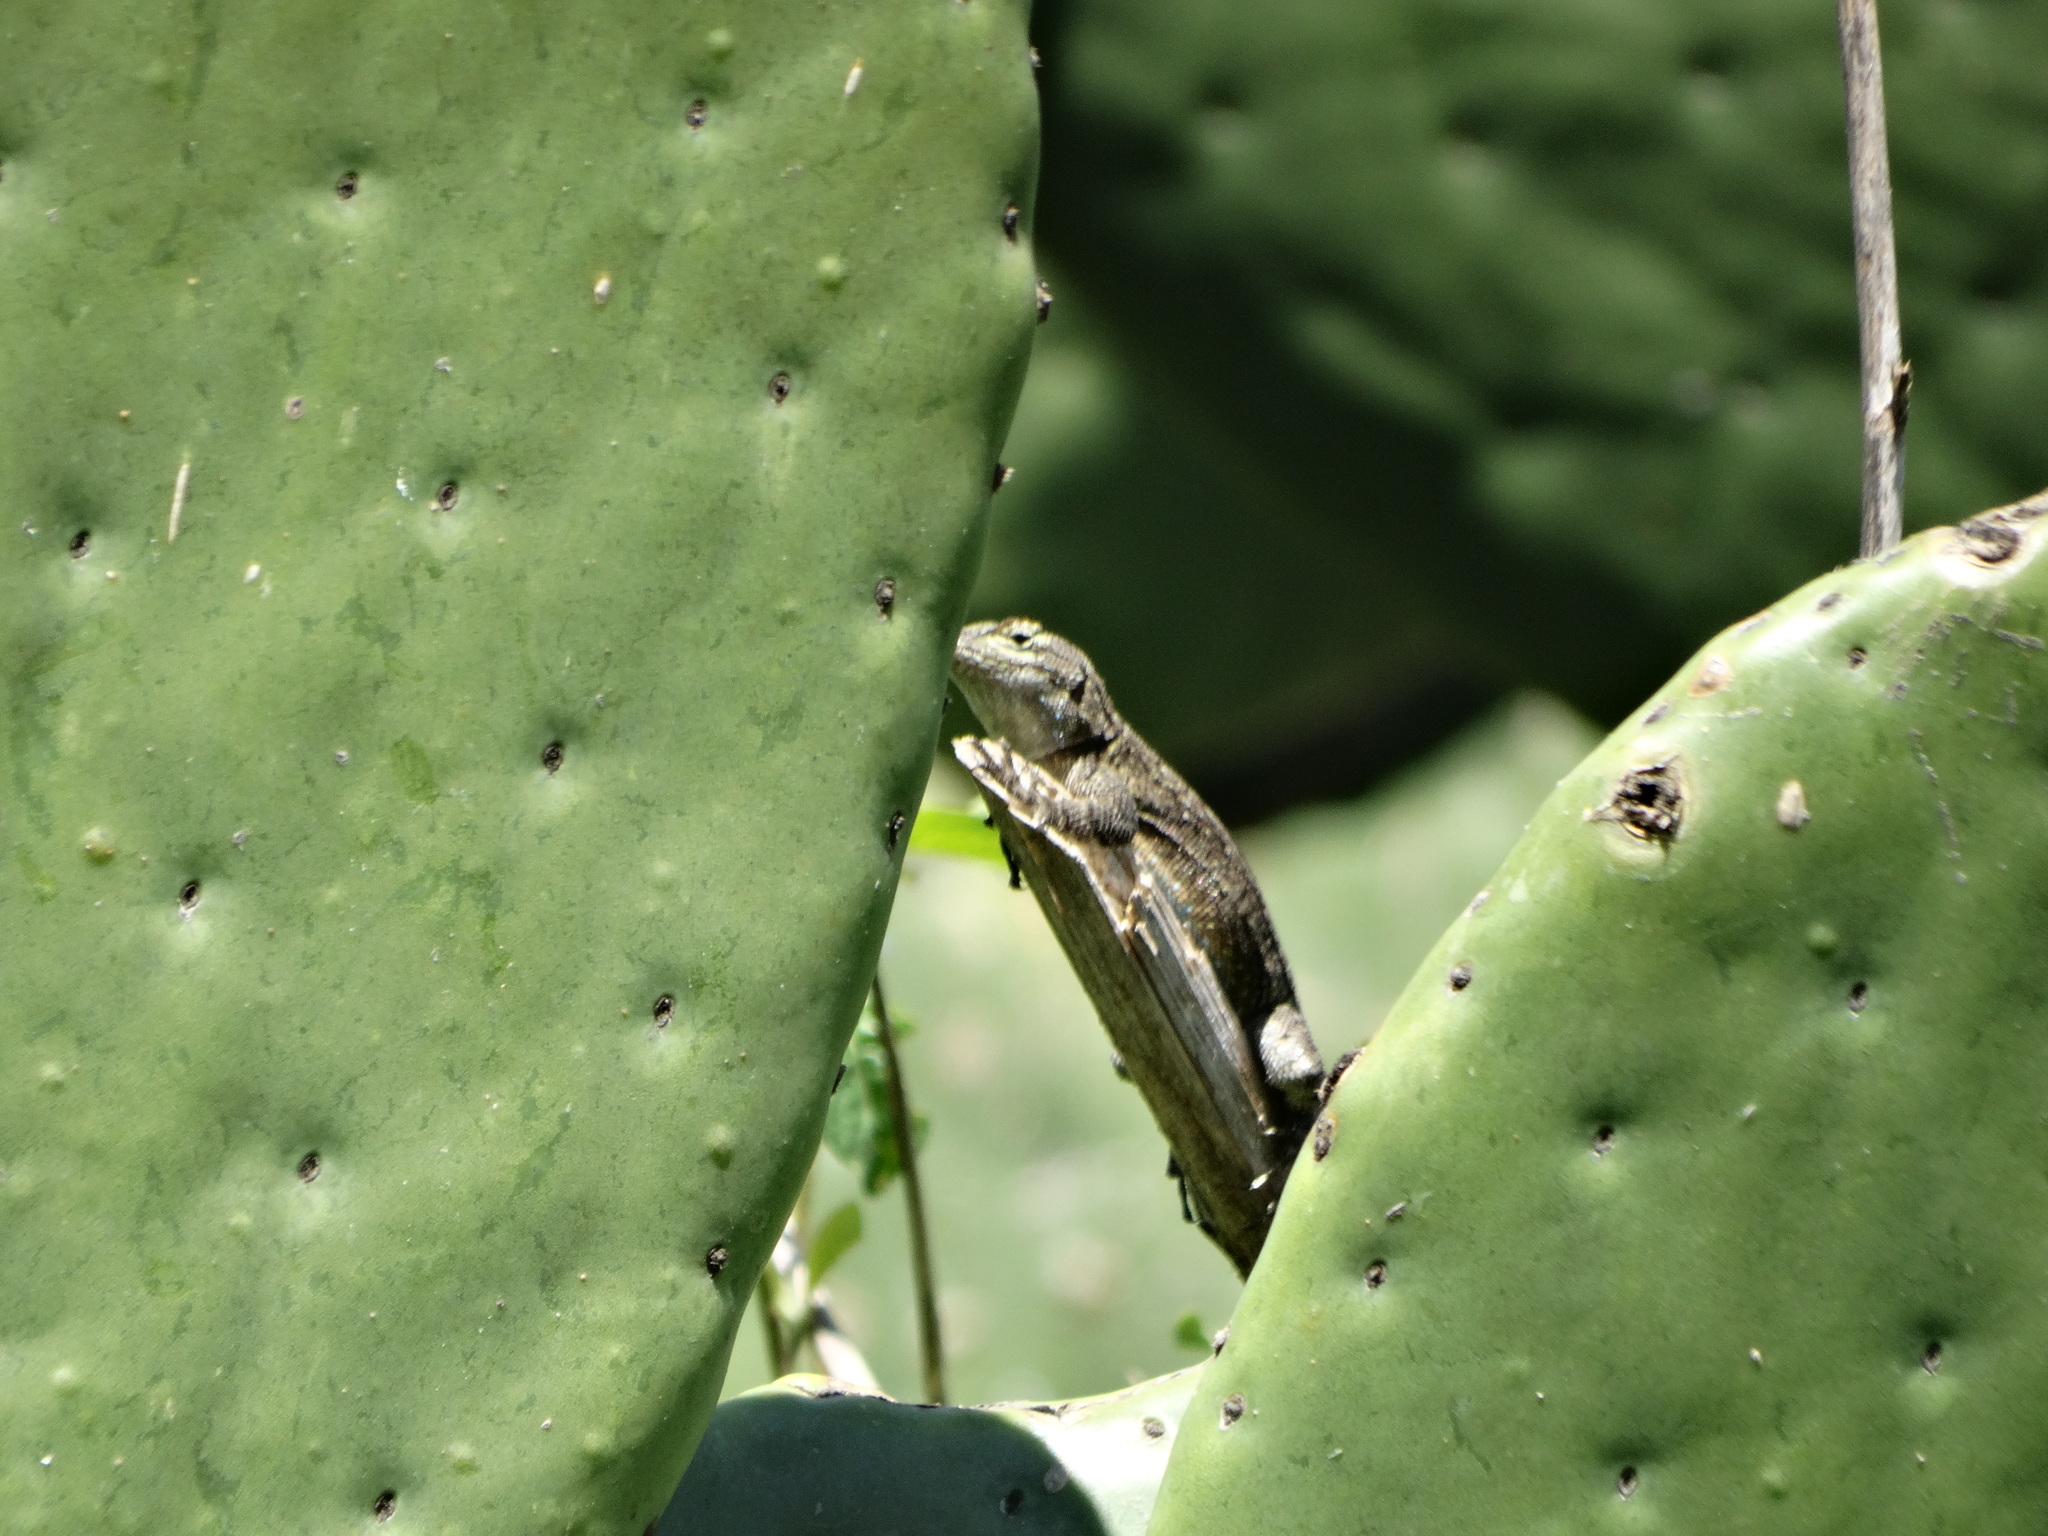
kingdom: Animalia
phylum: Chordata
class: Squamata
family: Phrynosomatidae
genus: Sceloporus
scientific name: Sceloporus grammicus
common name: Mesquite lizard
